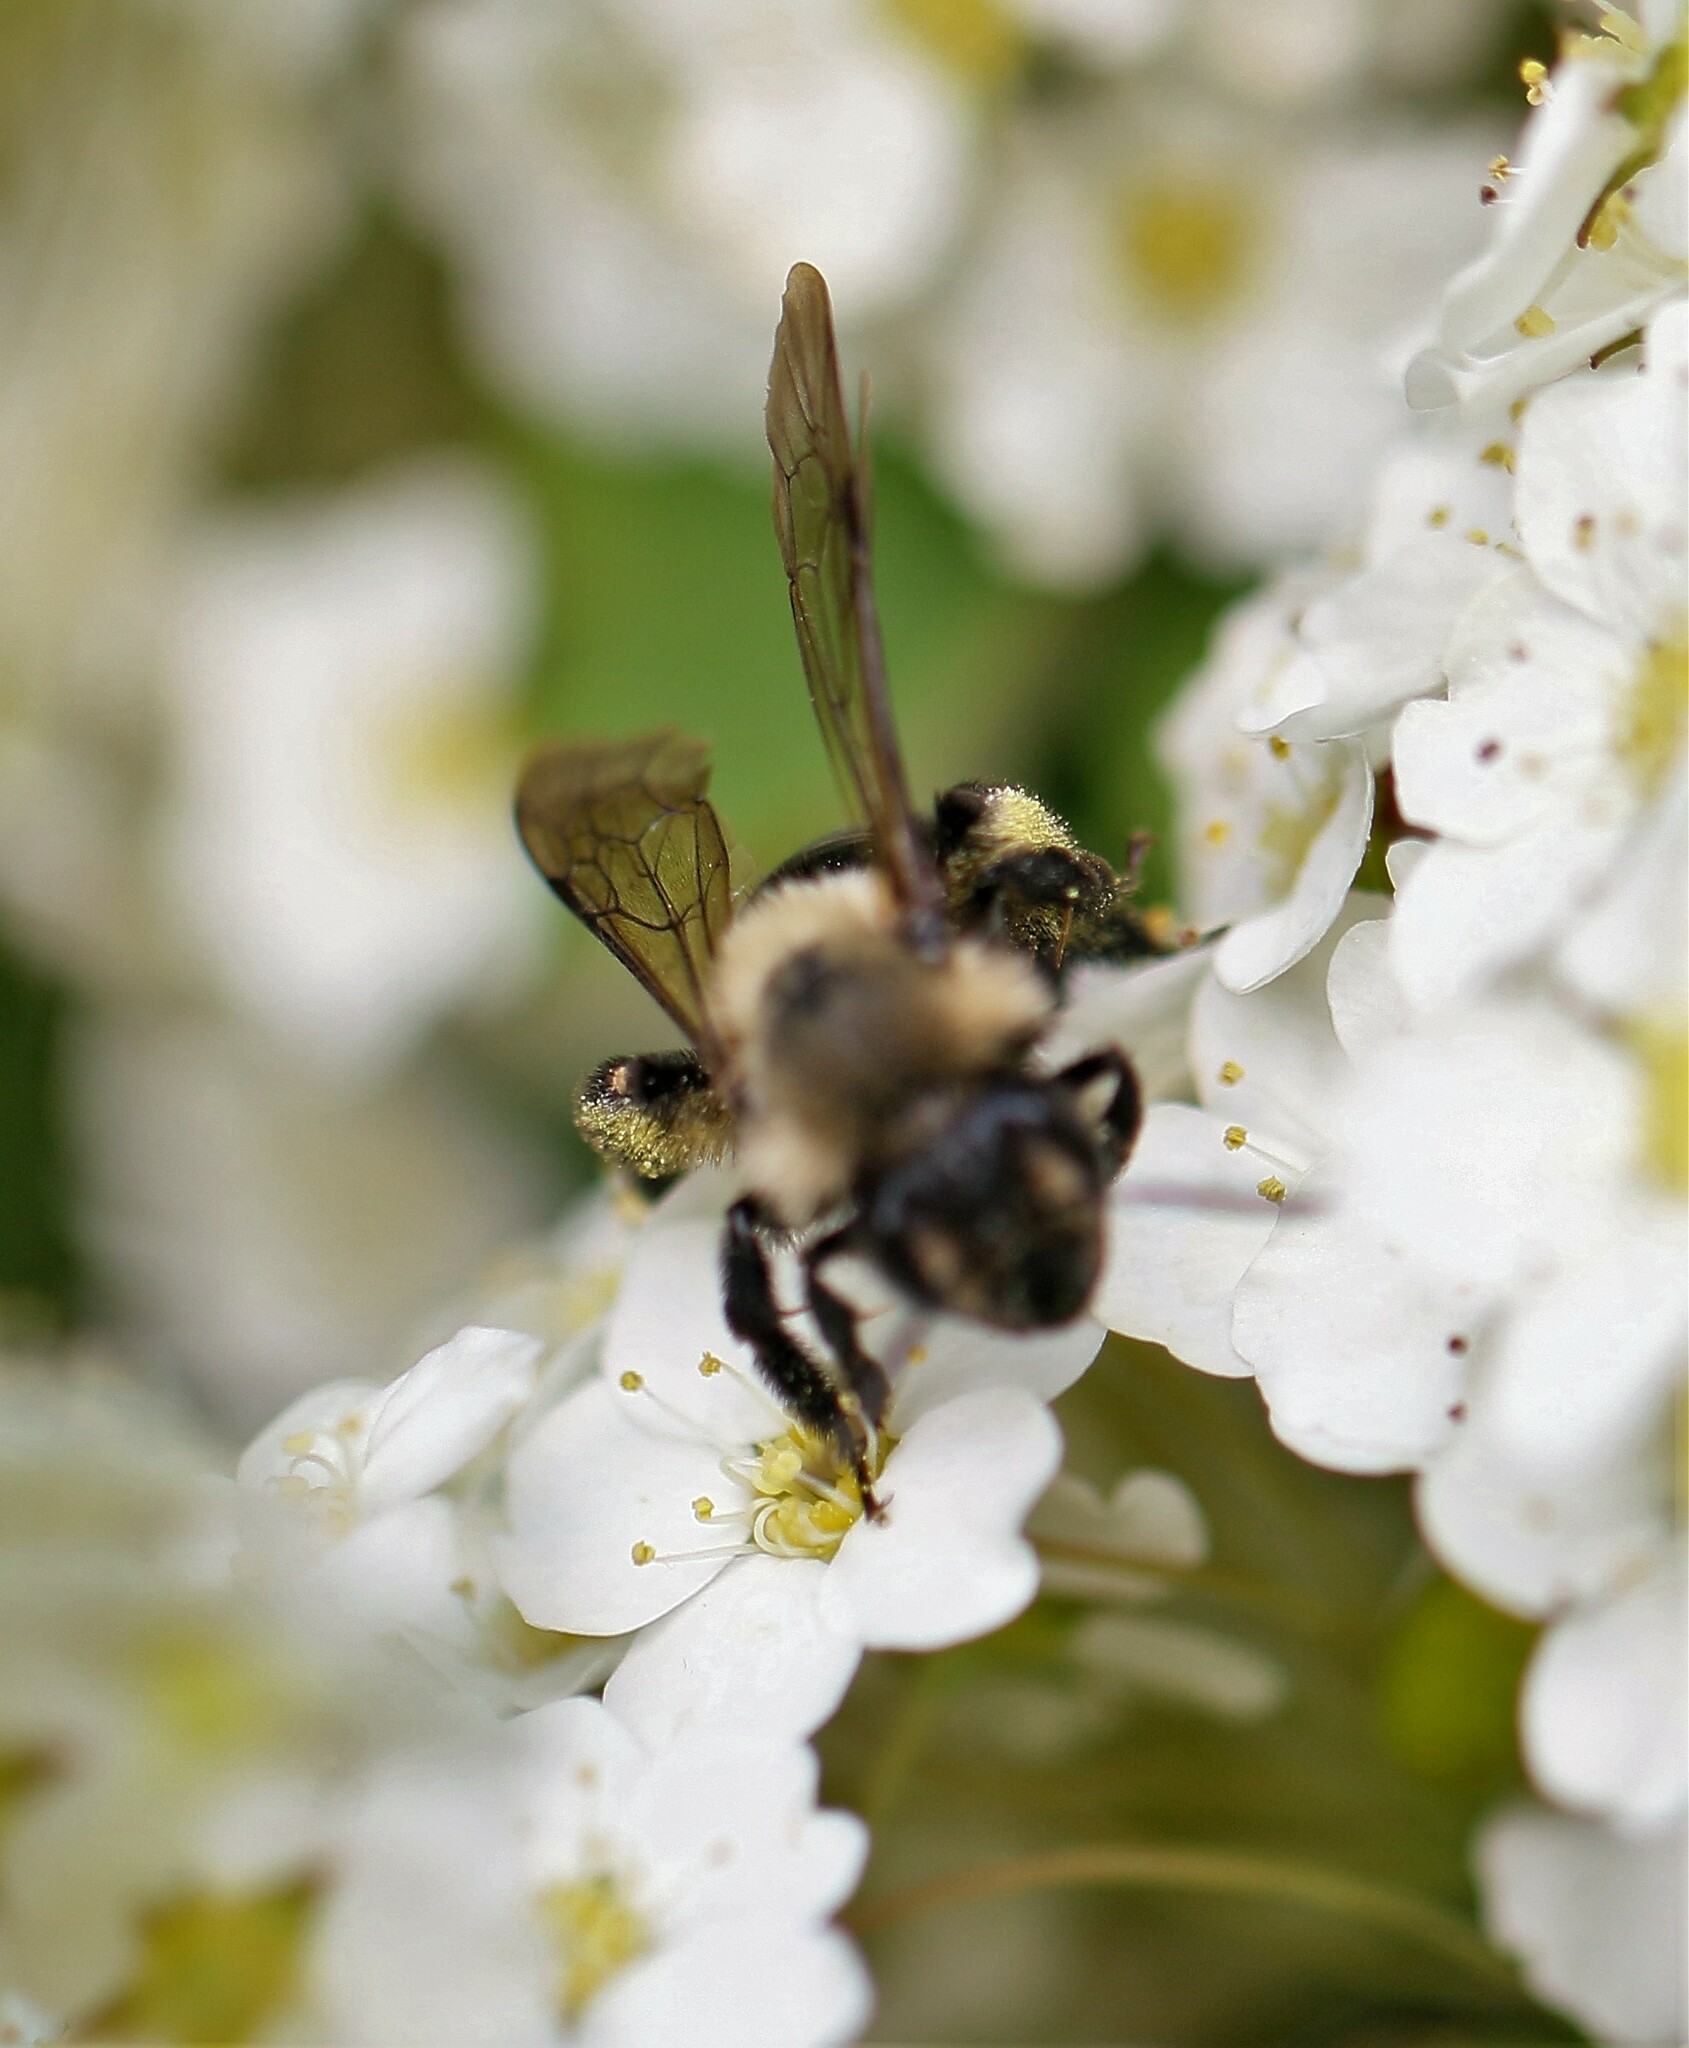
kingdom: Animalia
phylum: Arthropoda
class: Insecta
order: Hymenoptera
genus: Melandrena
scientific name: Melandrena
